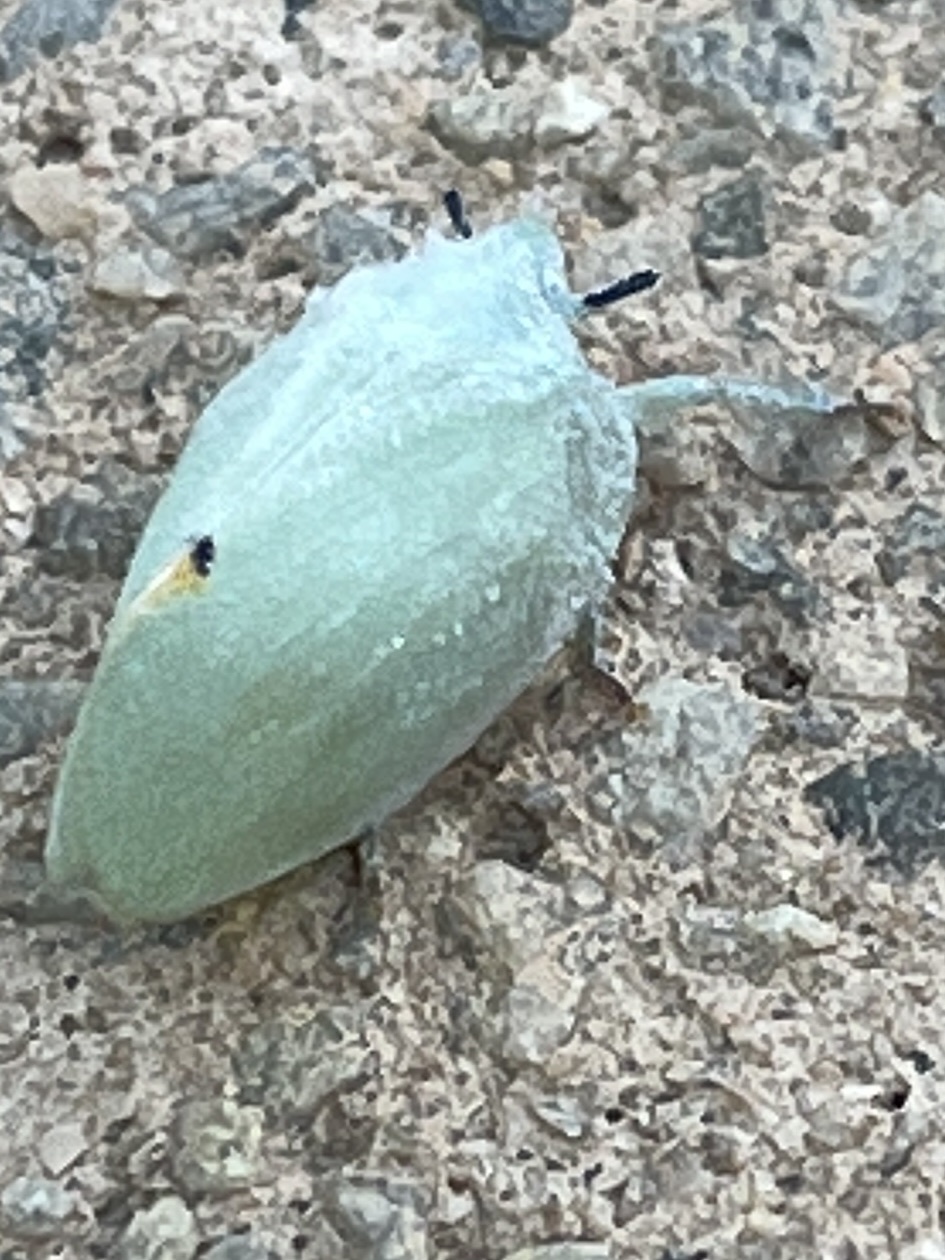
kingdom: Animalia
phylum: Arthropoda
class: Insecta
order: Hemiptera
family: Flatidae
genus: Dalapax
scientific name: Dalapax postica
